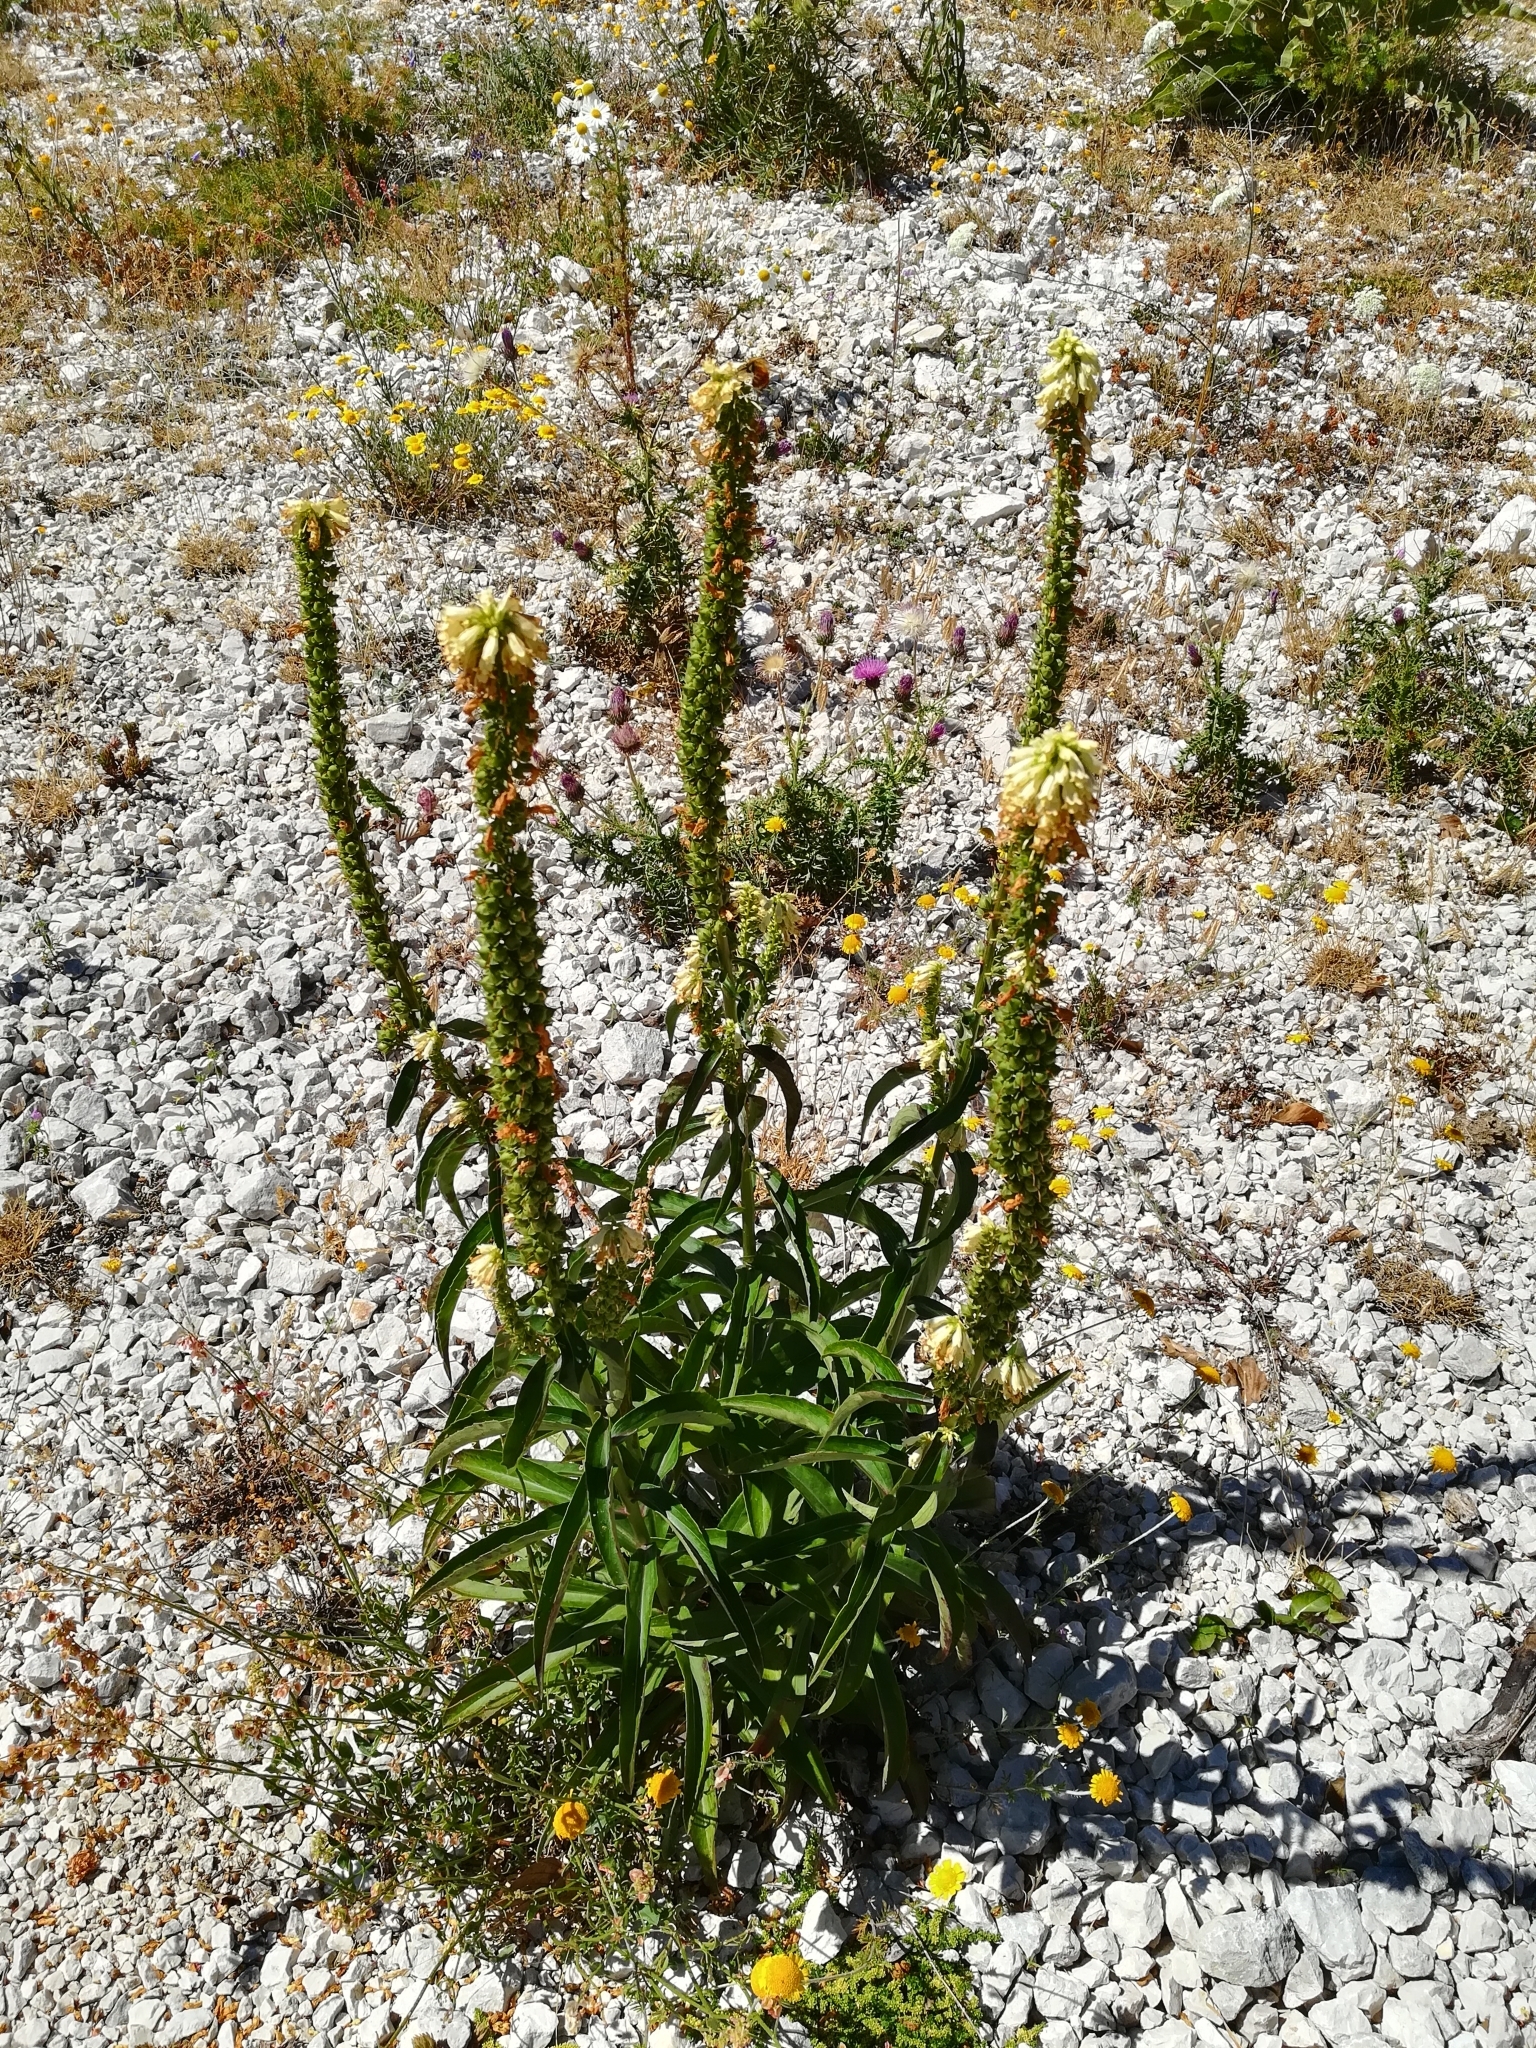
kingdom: Plantae
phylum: Tracheophyta
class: Magnoliopsida
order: Lamiales
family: Plantaginaceae
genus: Digitalis
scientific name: Digitalis lutea
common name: Straw foxglove
